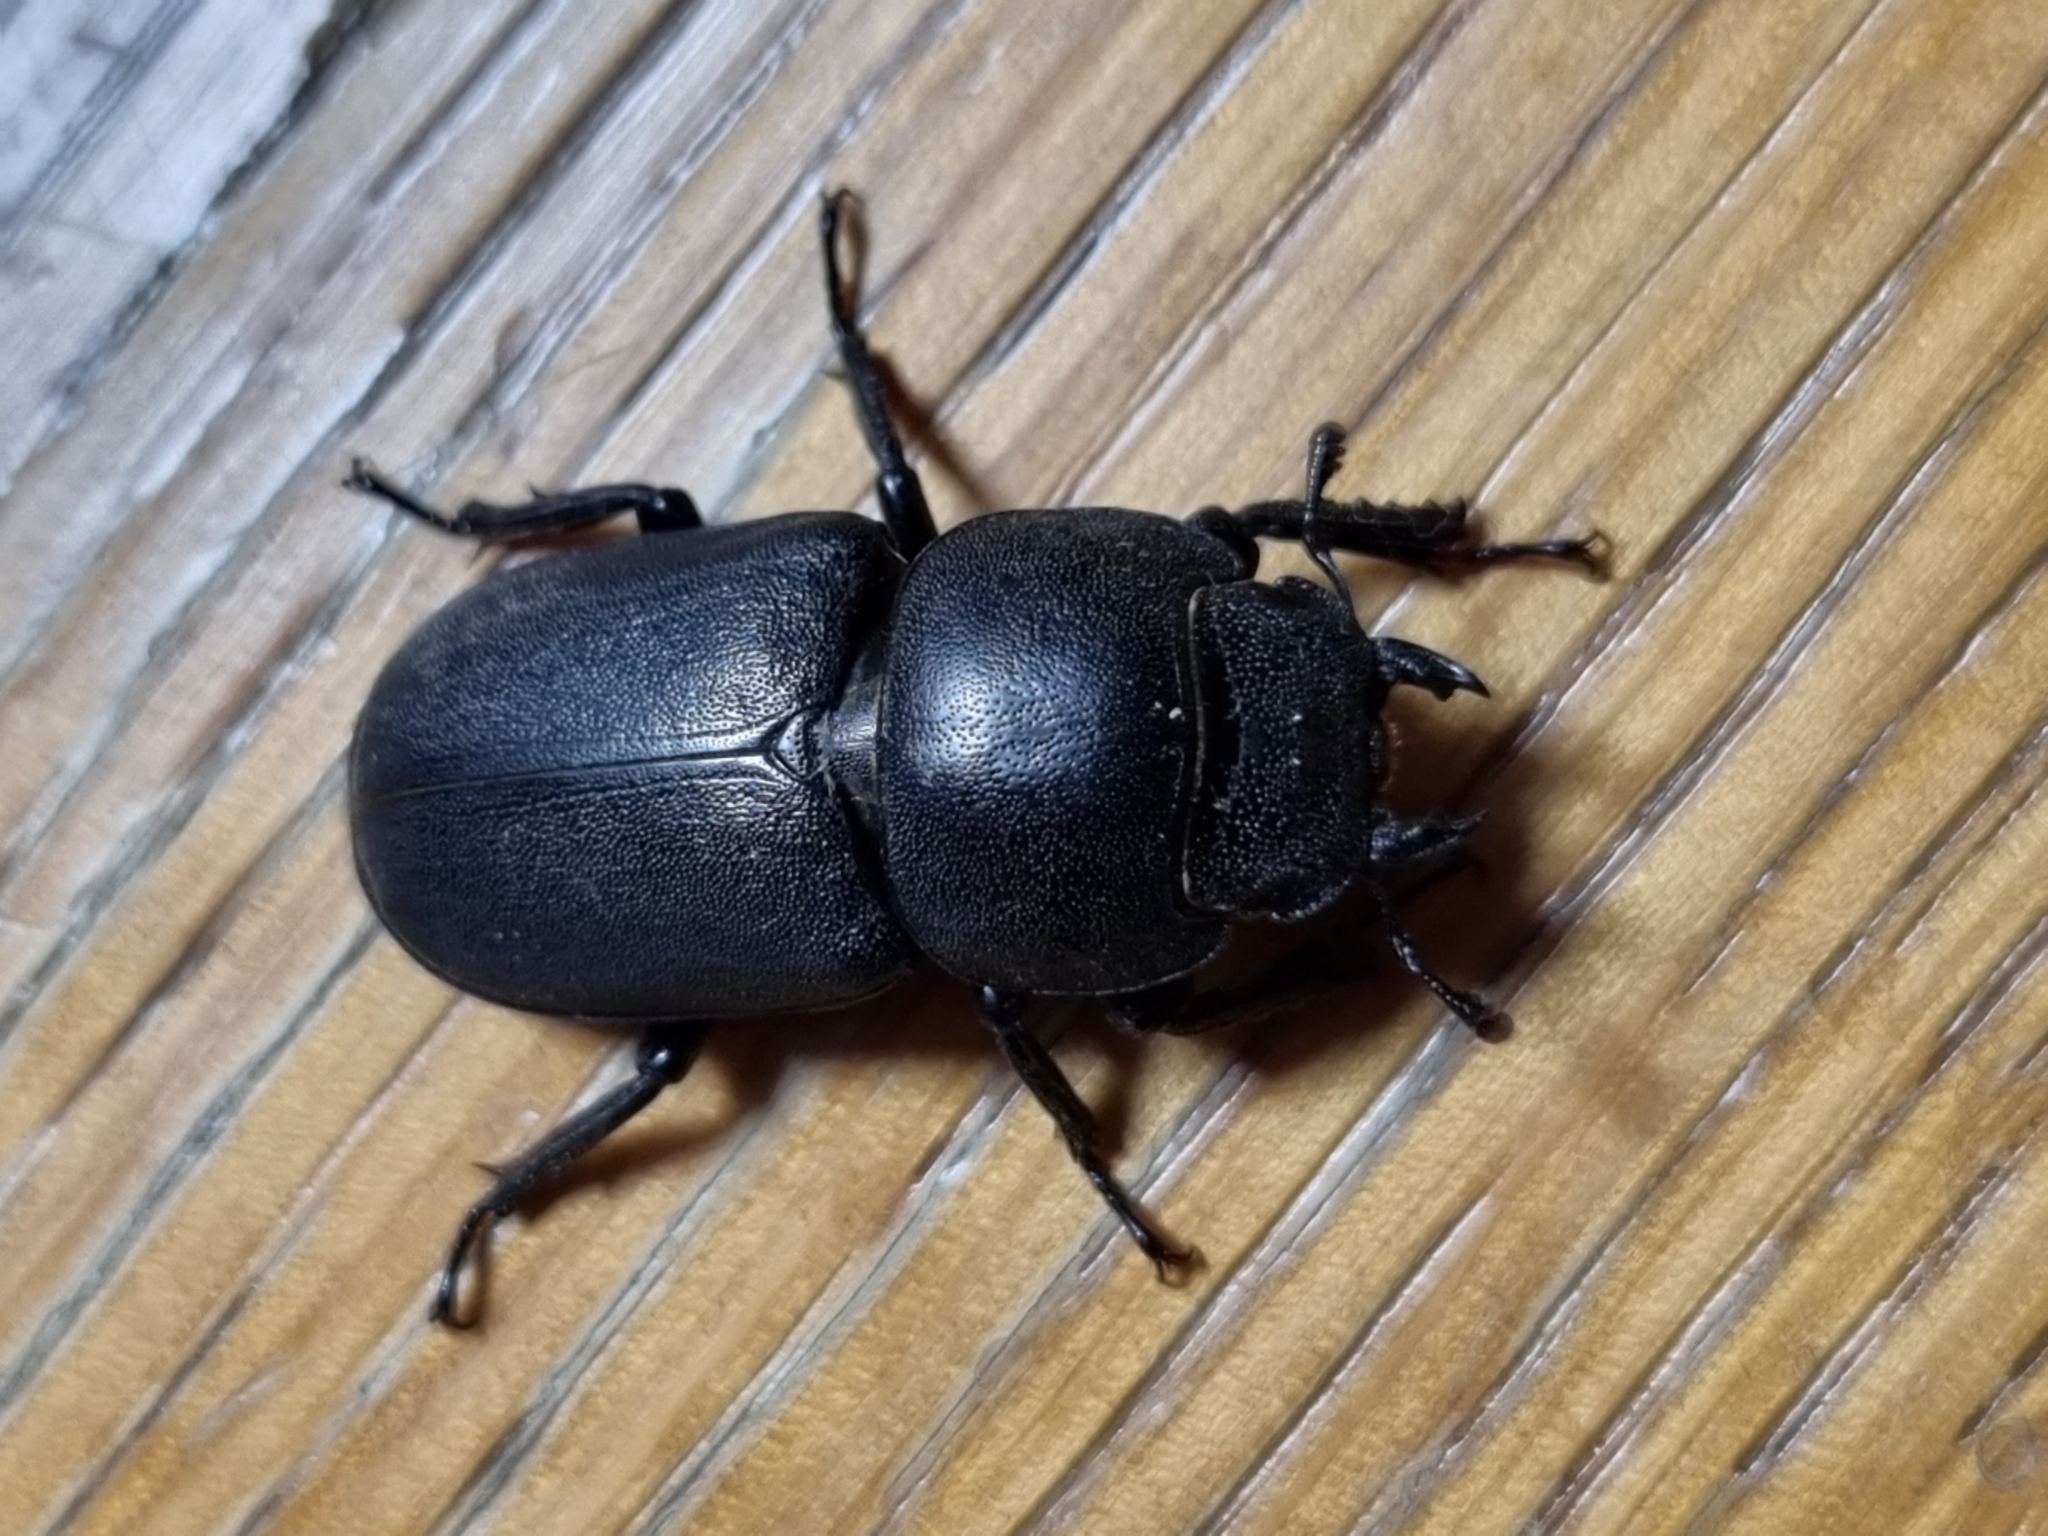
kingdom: Animalia
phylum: Arthropoda
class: Insecta
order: Coleoptera
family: Lucanidae
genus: Dorcus
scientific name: Dorcus parallelipipedus
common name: Lesser stag beetle
